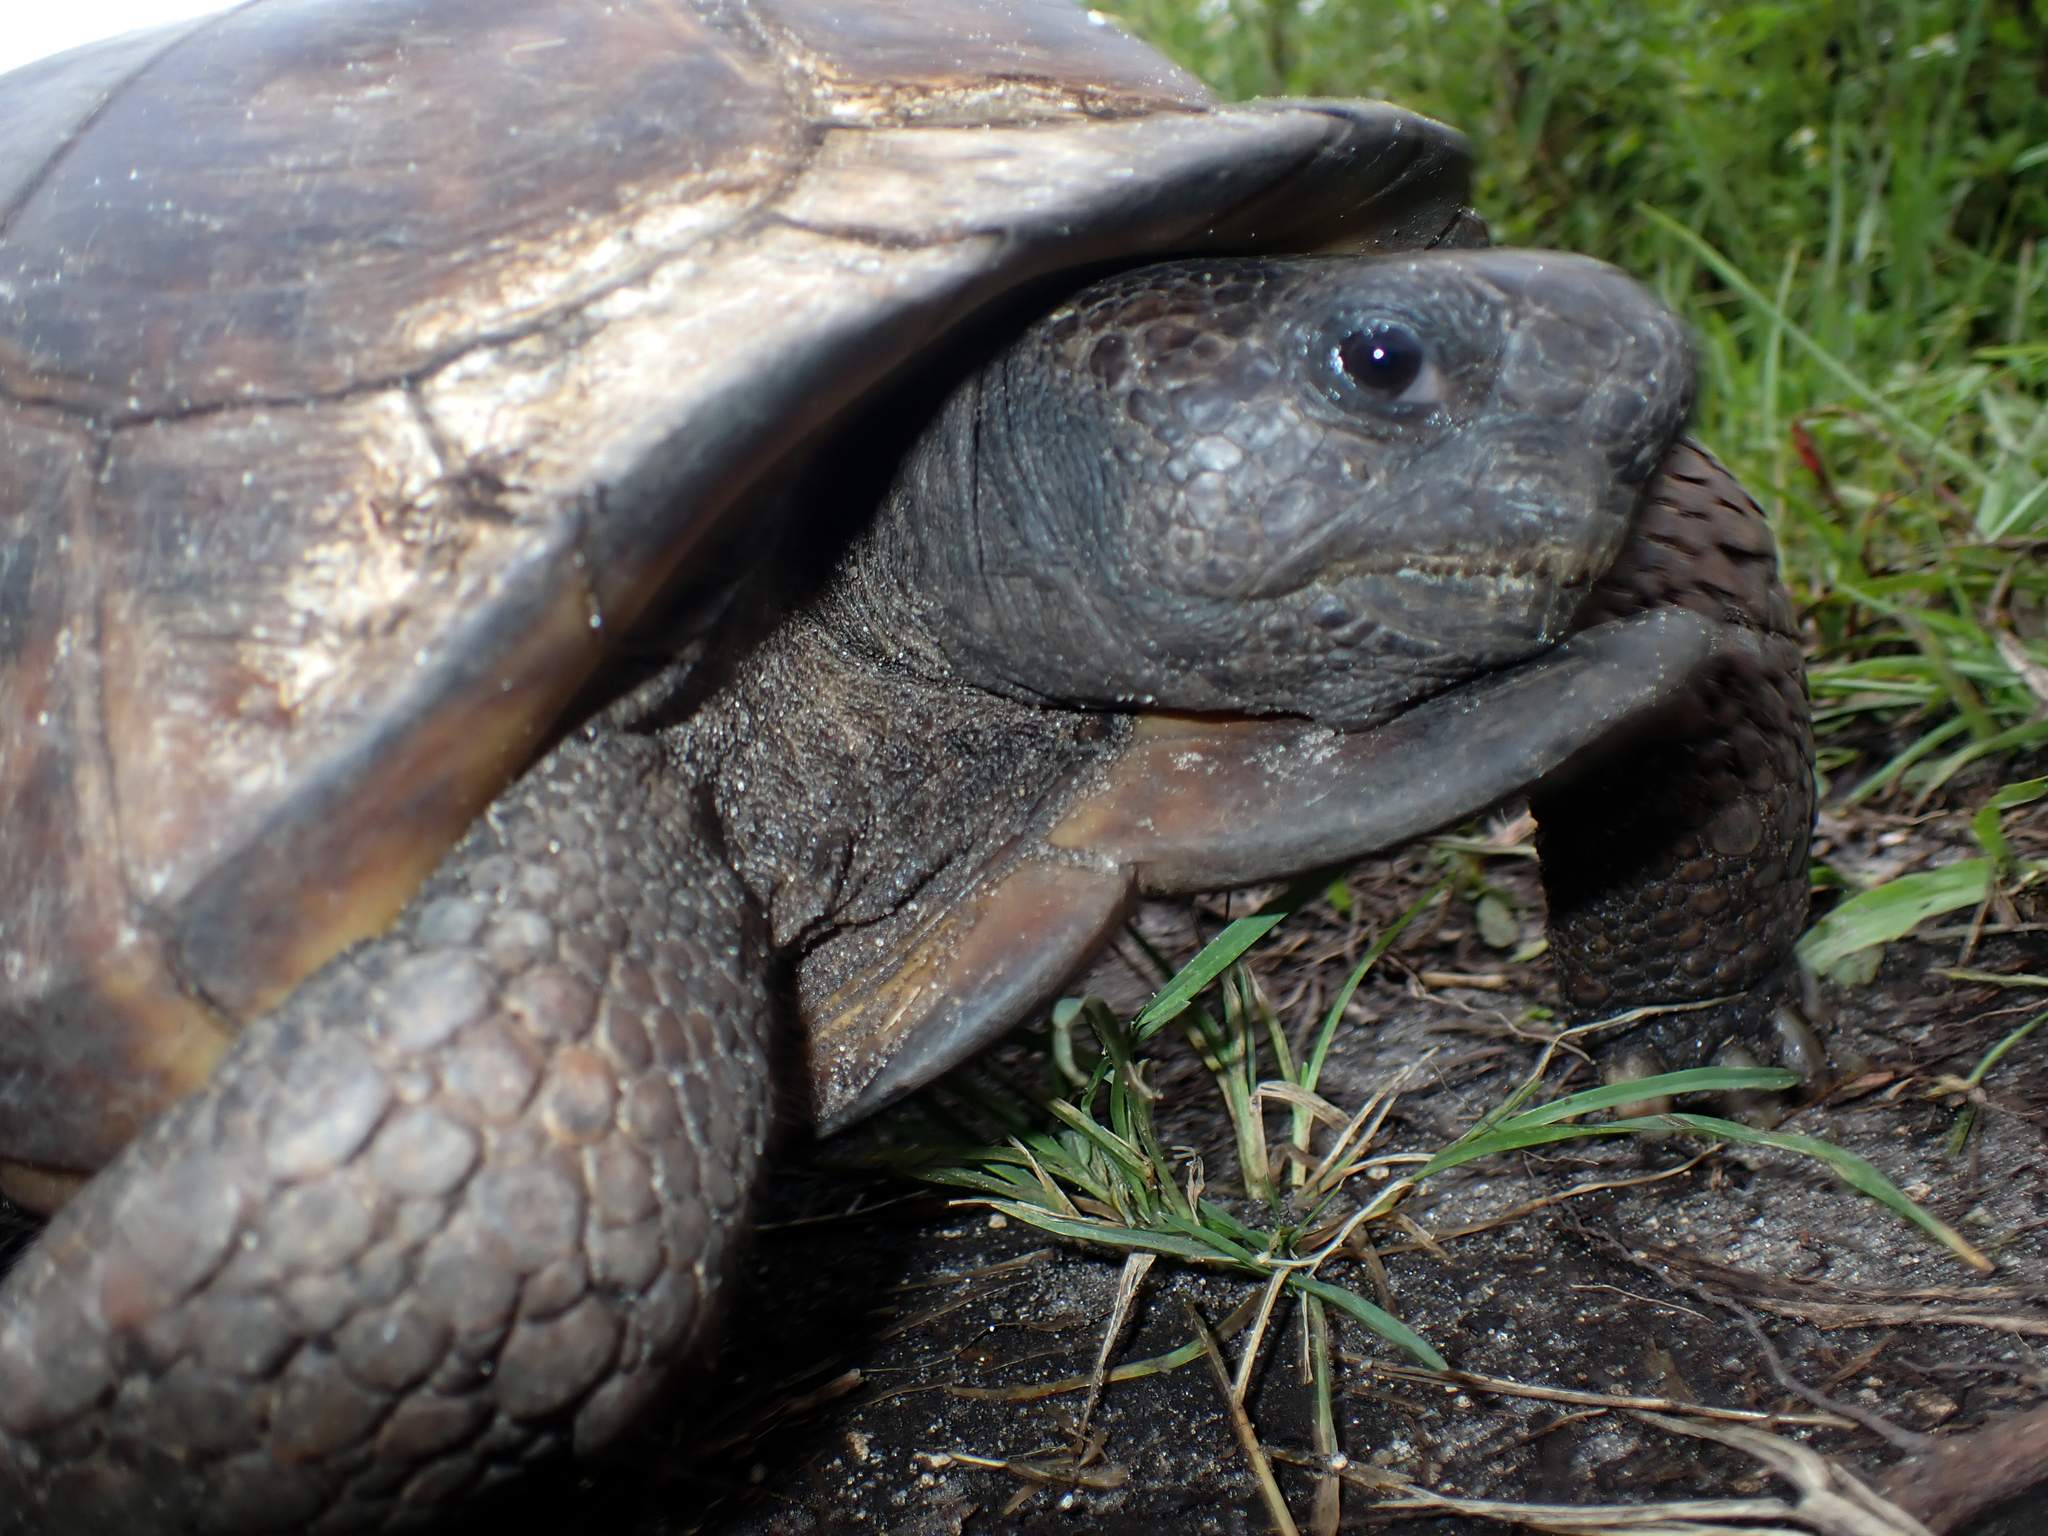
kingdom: Animalia
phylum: Chordata
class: Testudines
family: Testudinidae
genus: Gopherus
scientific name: Gopherus polyphemus
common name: Florida gopher tortoise
